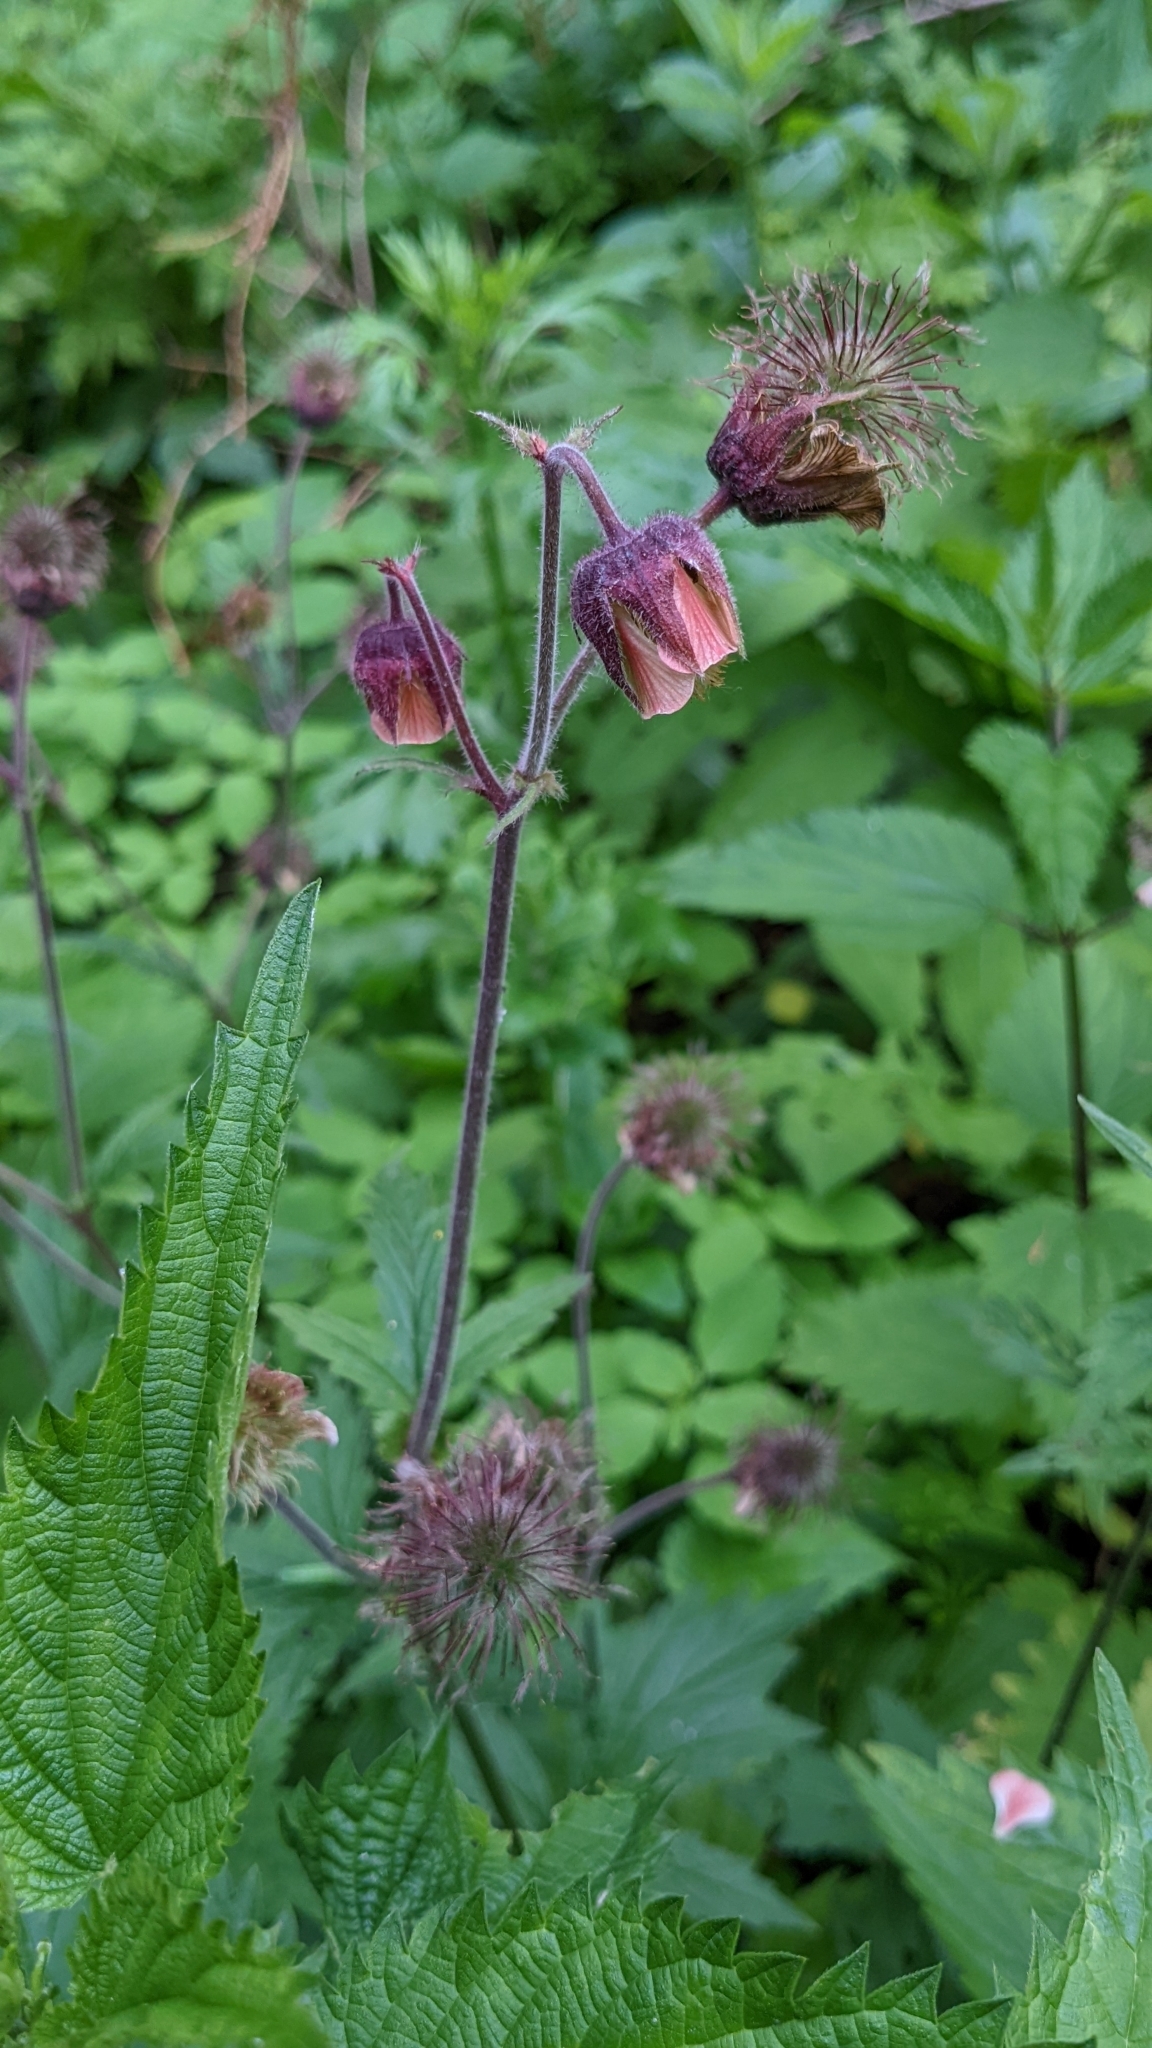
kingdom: Plantae
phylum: Tracheophyta
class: Magnoliopsida
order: Rosales
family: Rosaceae
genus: Geum
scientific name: Geum rivale
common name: Water avens
